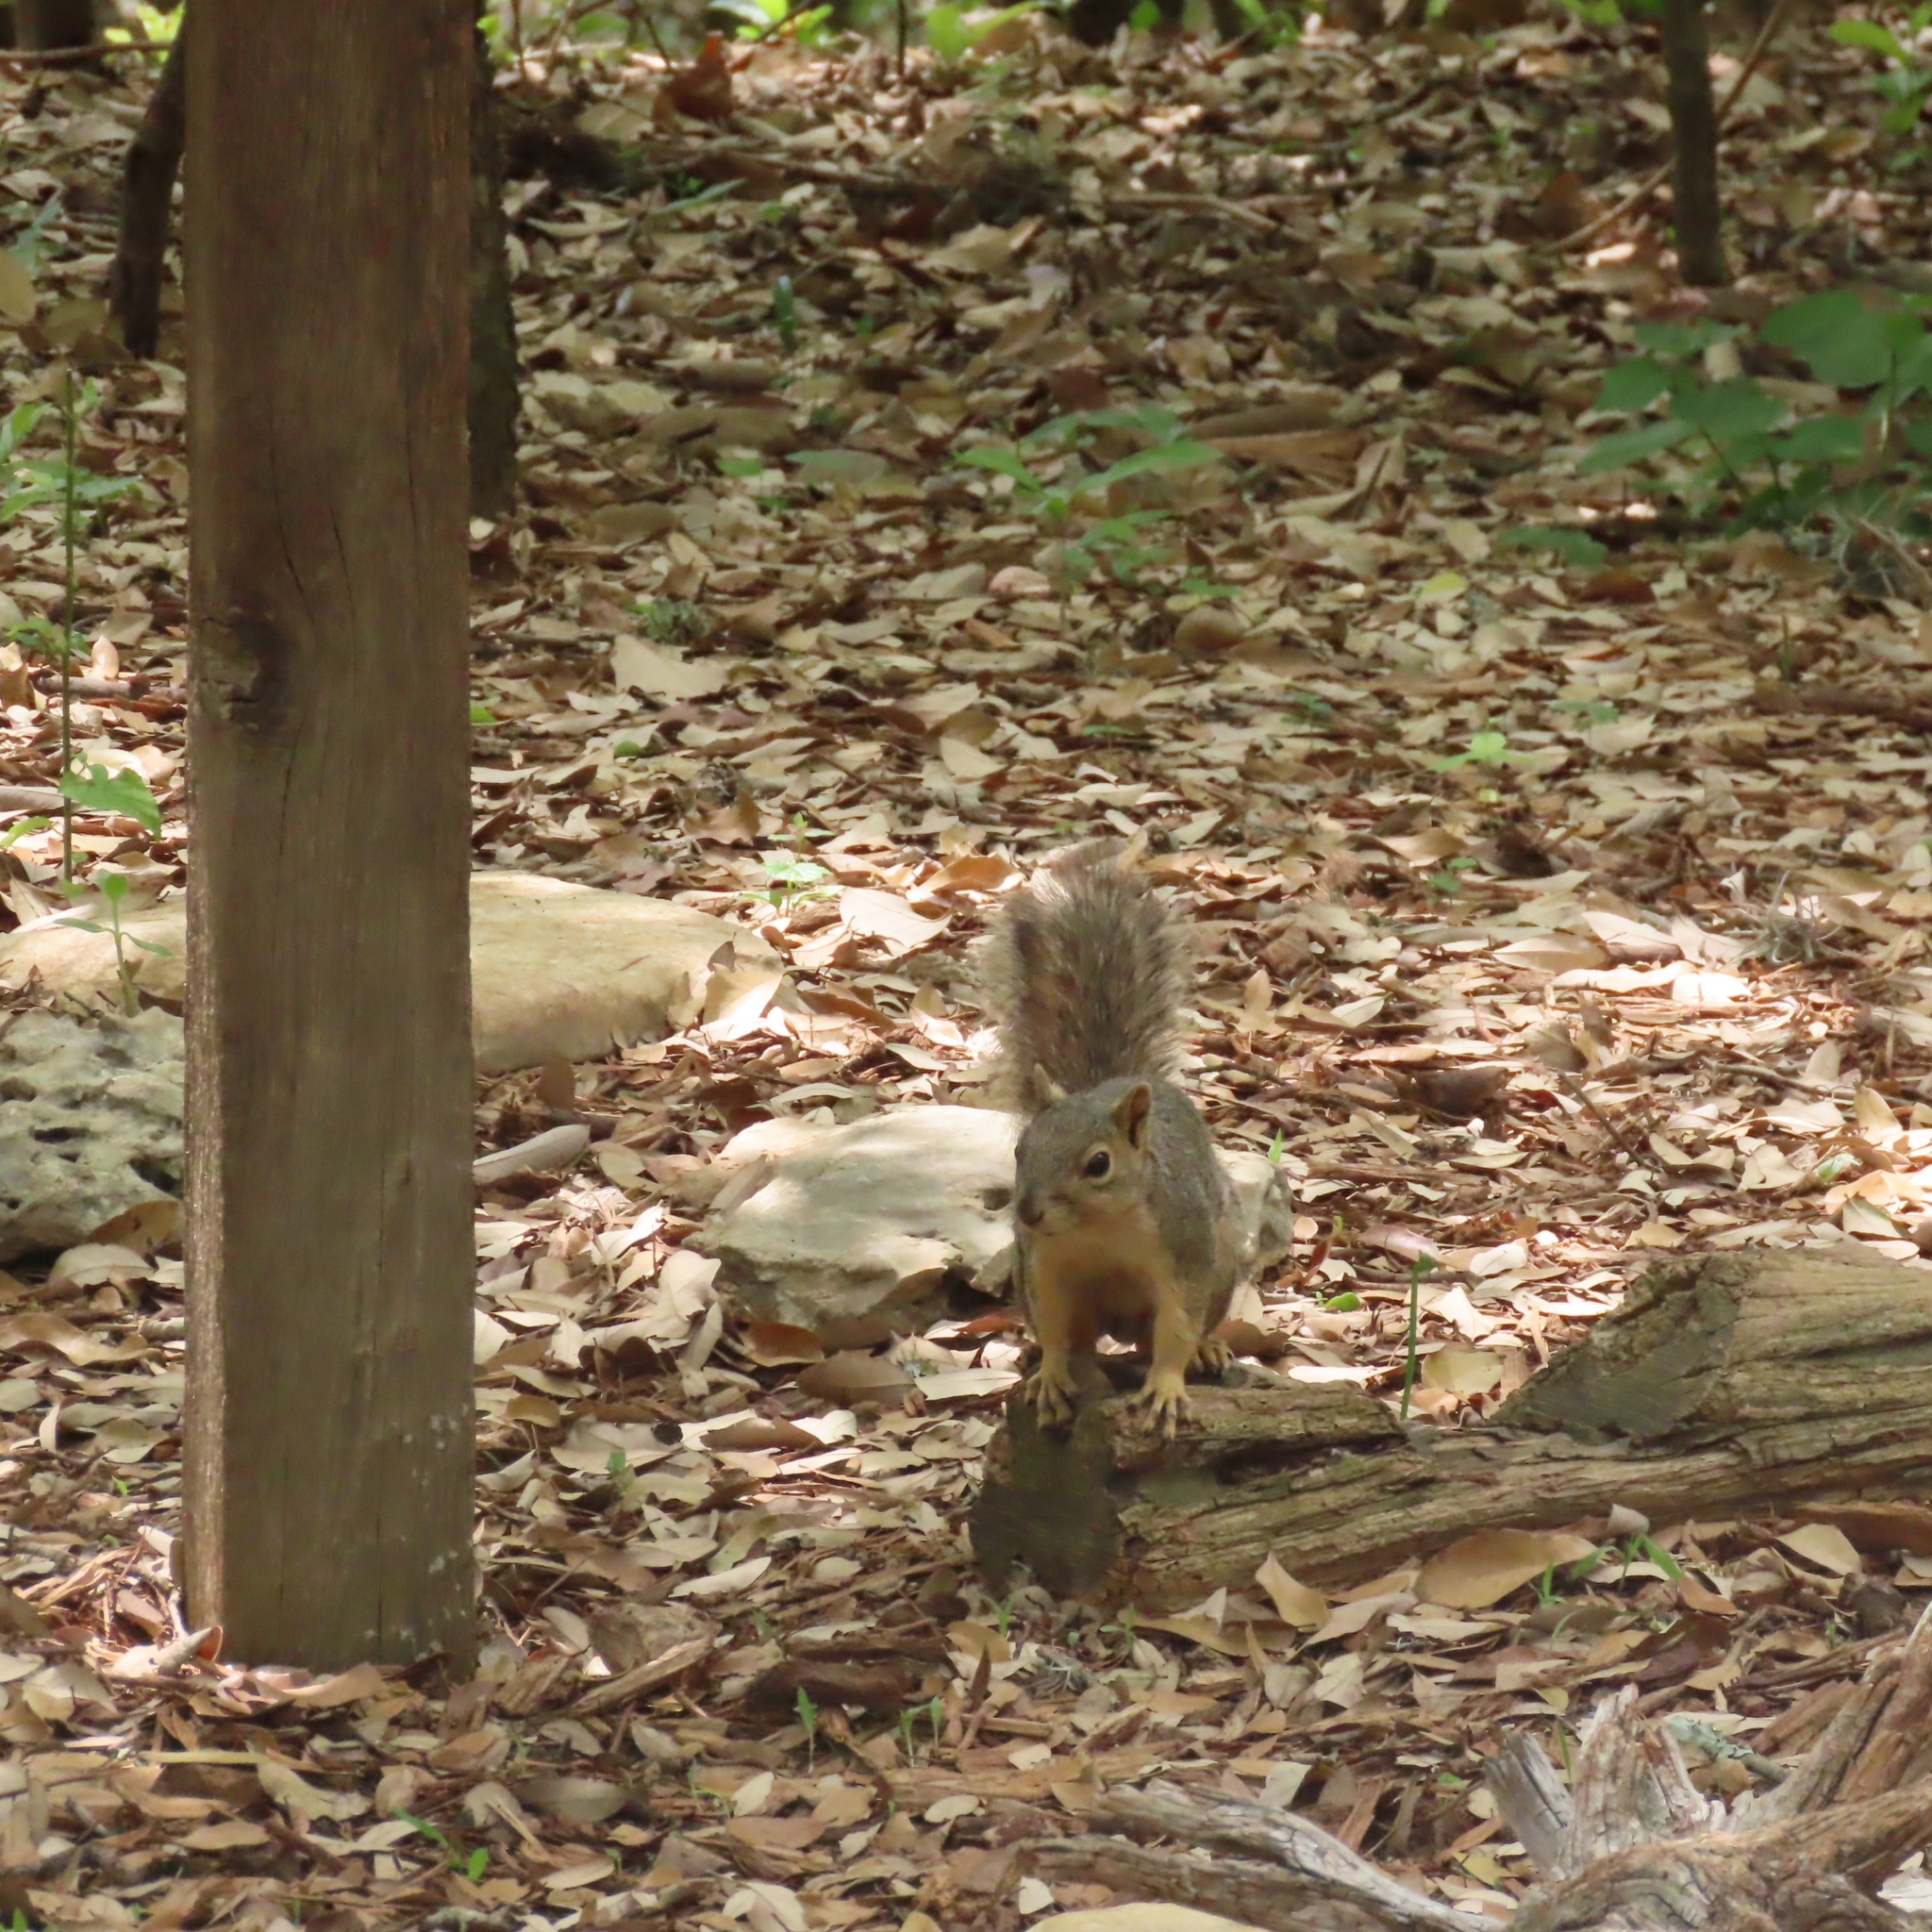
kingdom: Animalia
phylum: Chordata
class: Mammalia
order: Rodentia
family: Sciuridae
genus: Sciurus
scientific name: Sciurus niger
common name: Fox squirrel
